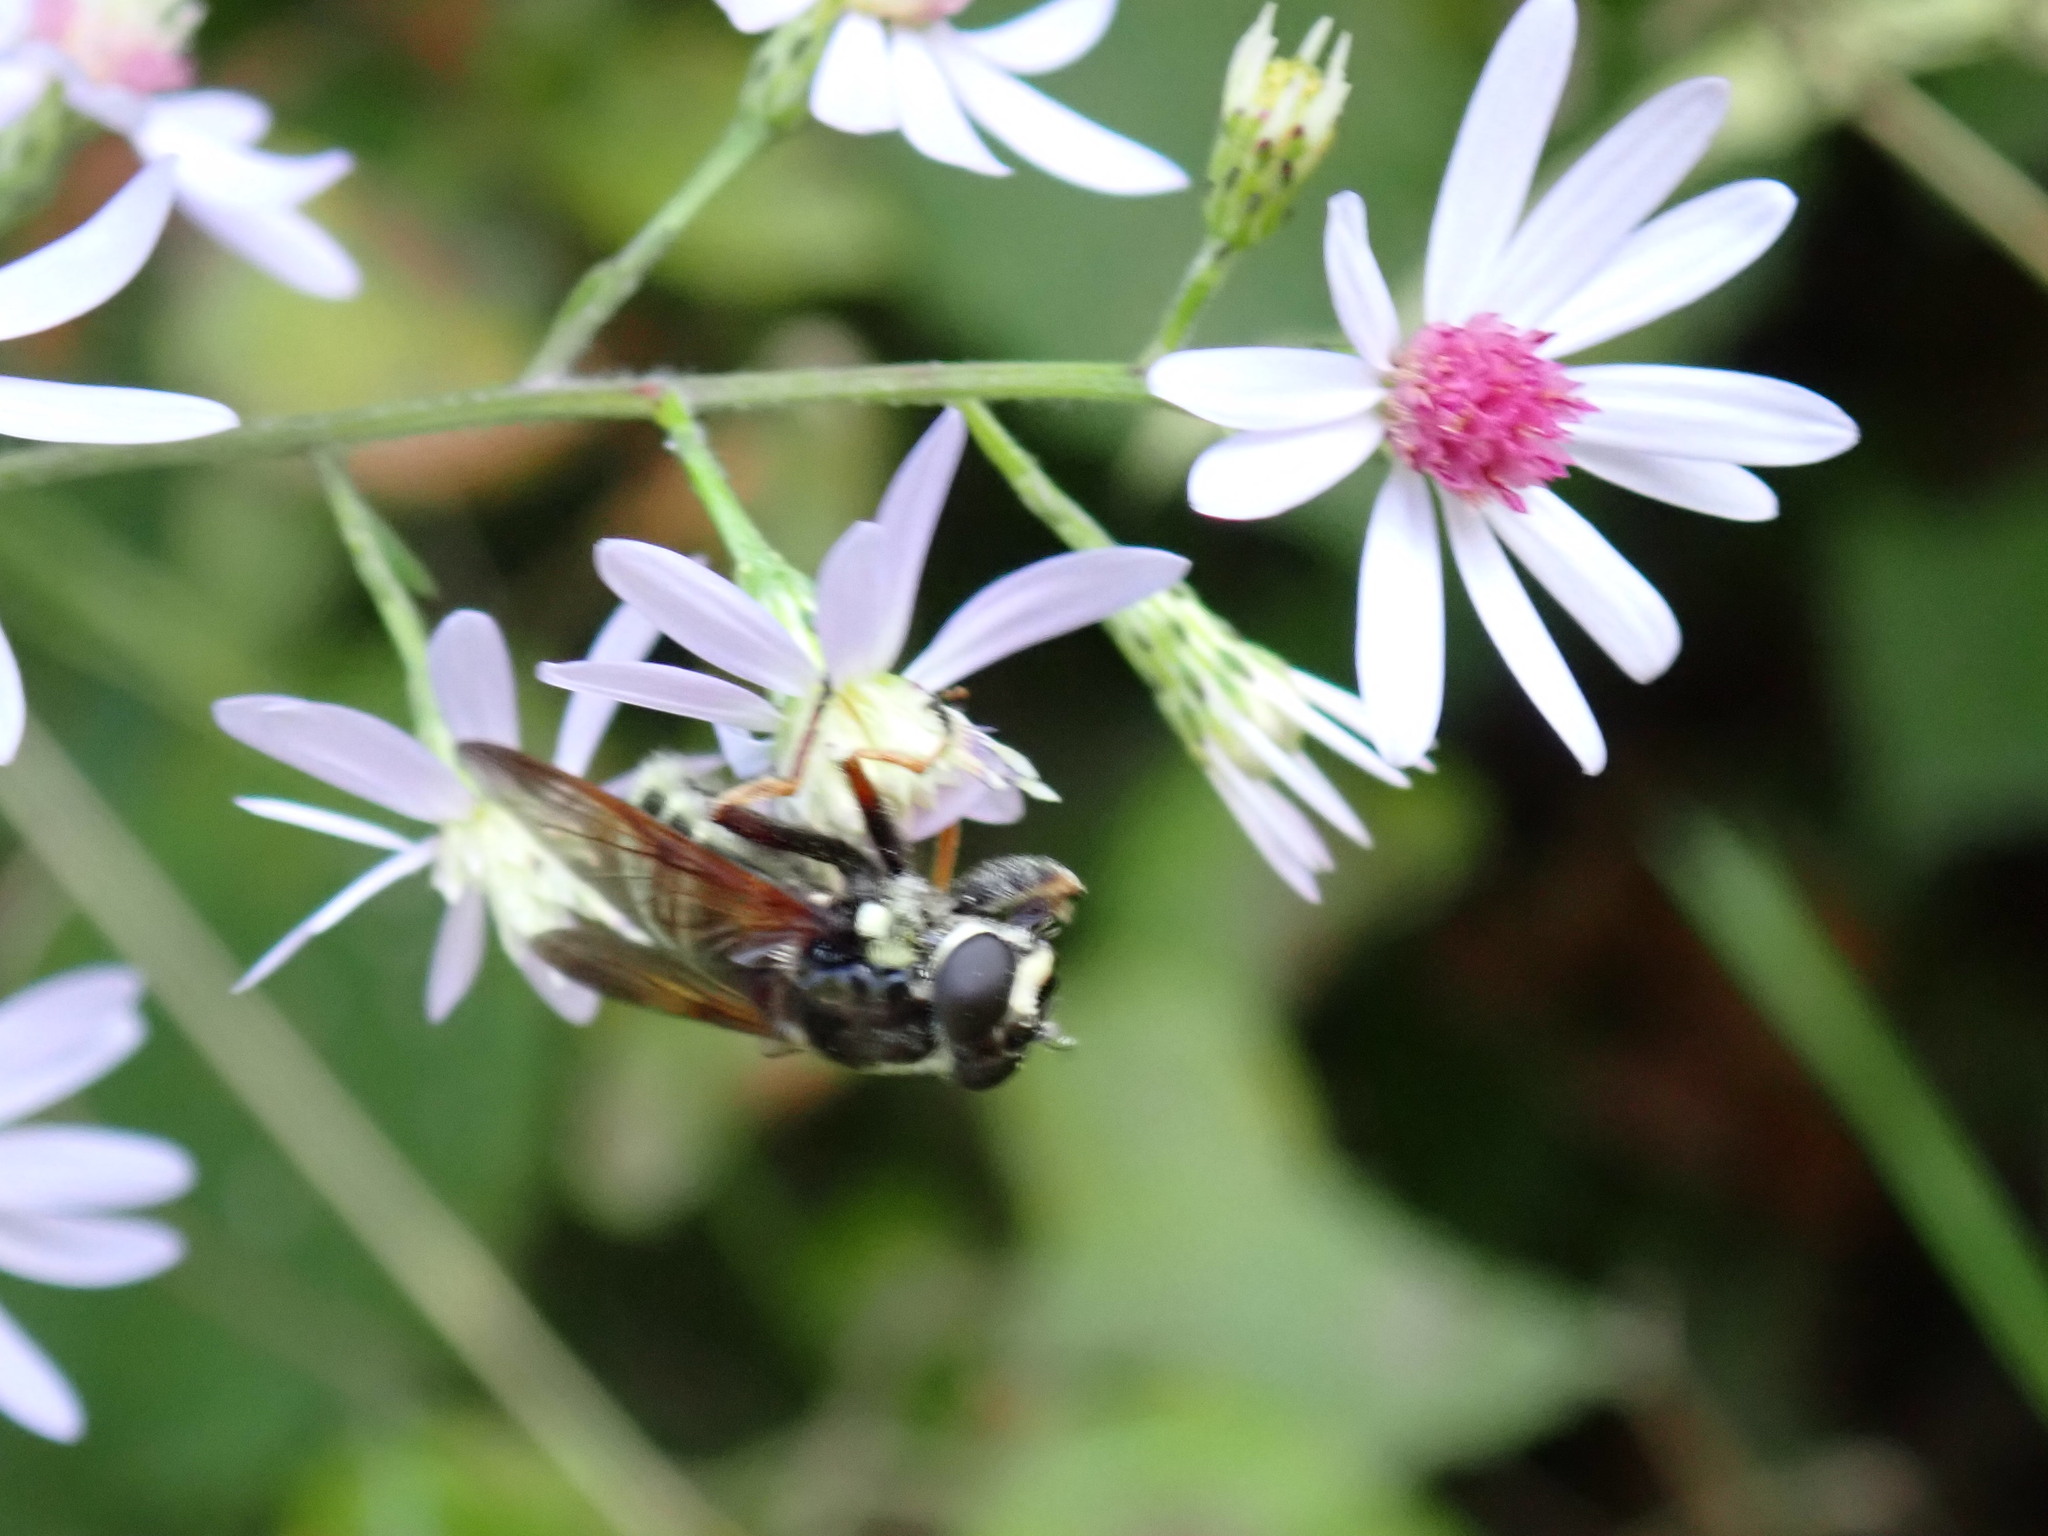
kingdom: Animalia
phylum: Arthropoda
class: Insecta
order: Diptera
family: Syrphidae
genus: Sericomyia
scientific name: Sericomyia militaris
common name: Narrow-banded pond fly
